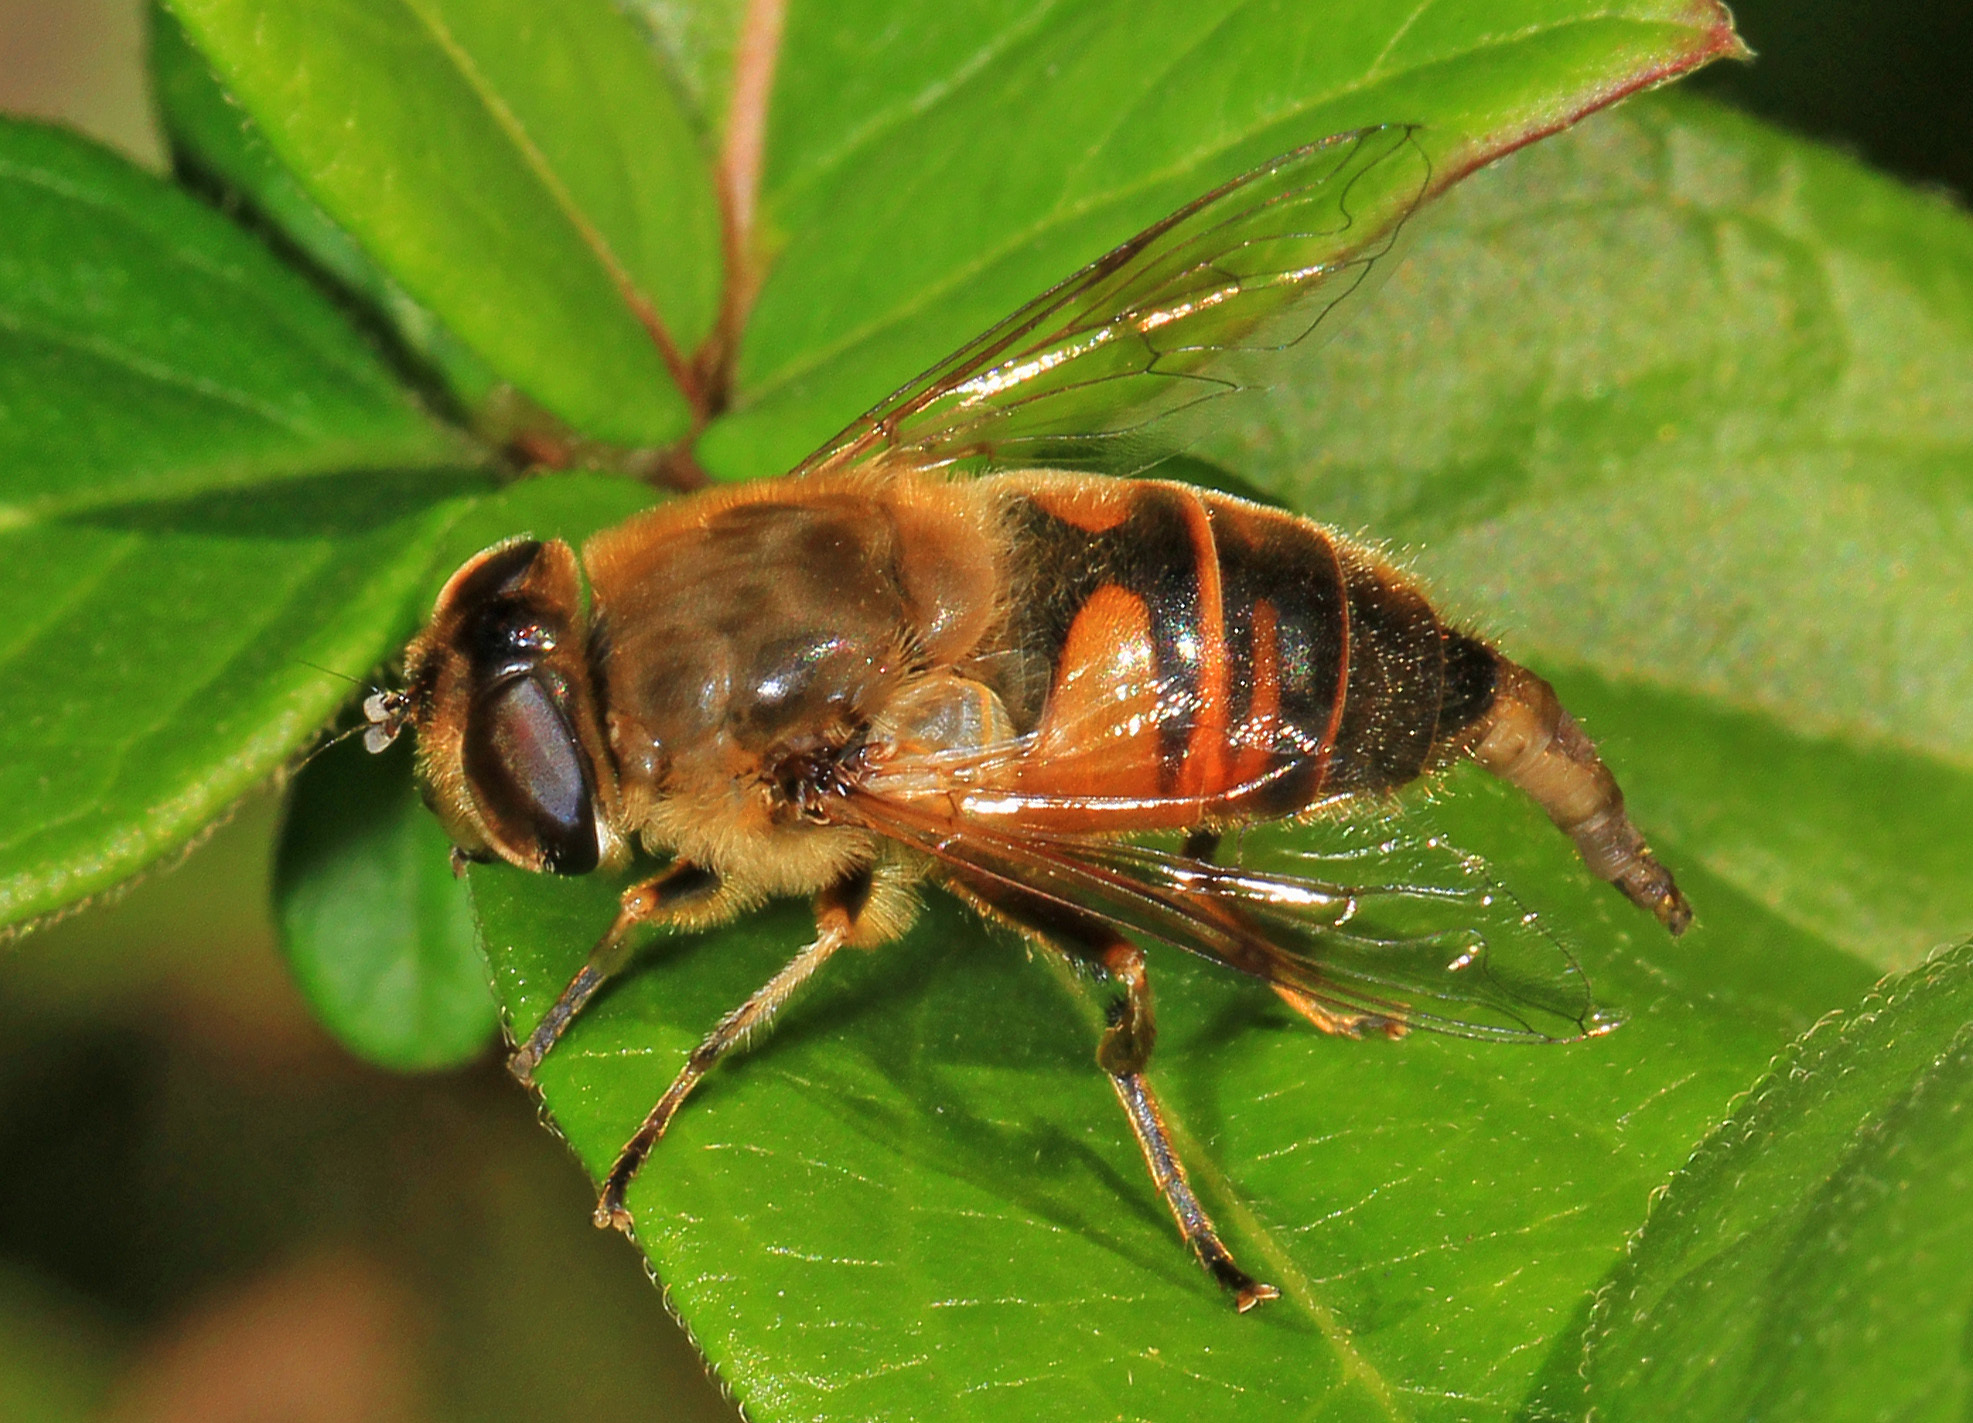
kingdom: Animalia
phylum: Arthropoda
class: Insecta
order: Diptera
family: Syrphidae
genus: Eristalis
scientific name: Eristalis tenax
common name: Drone fly
